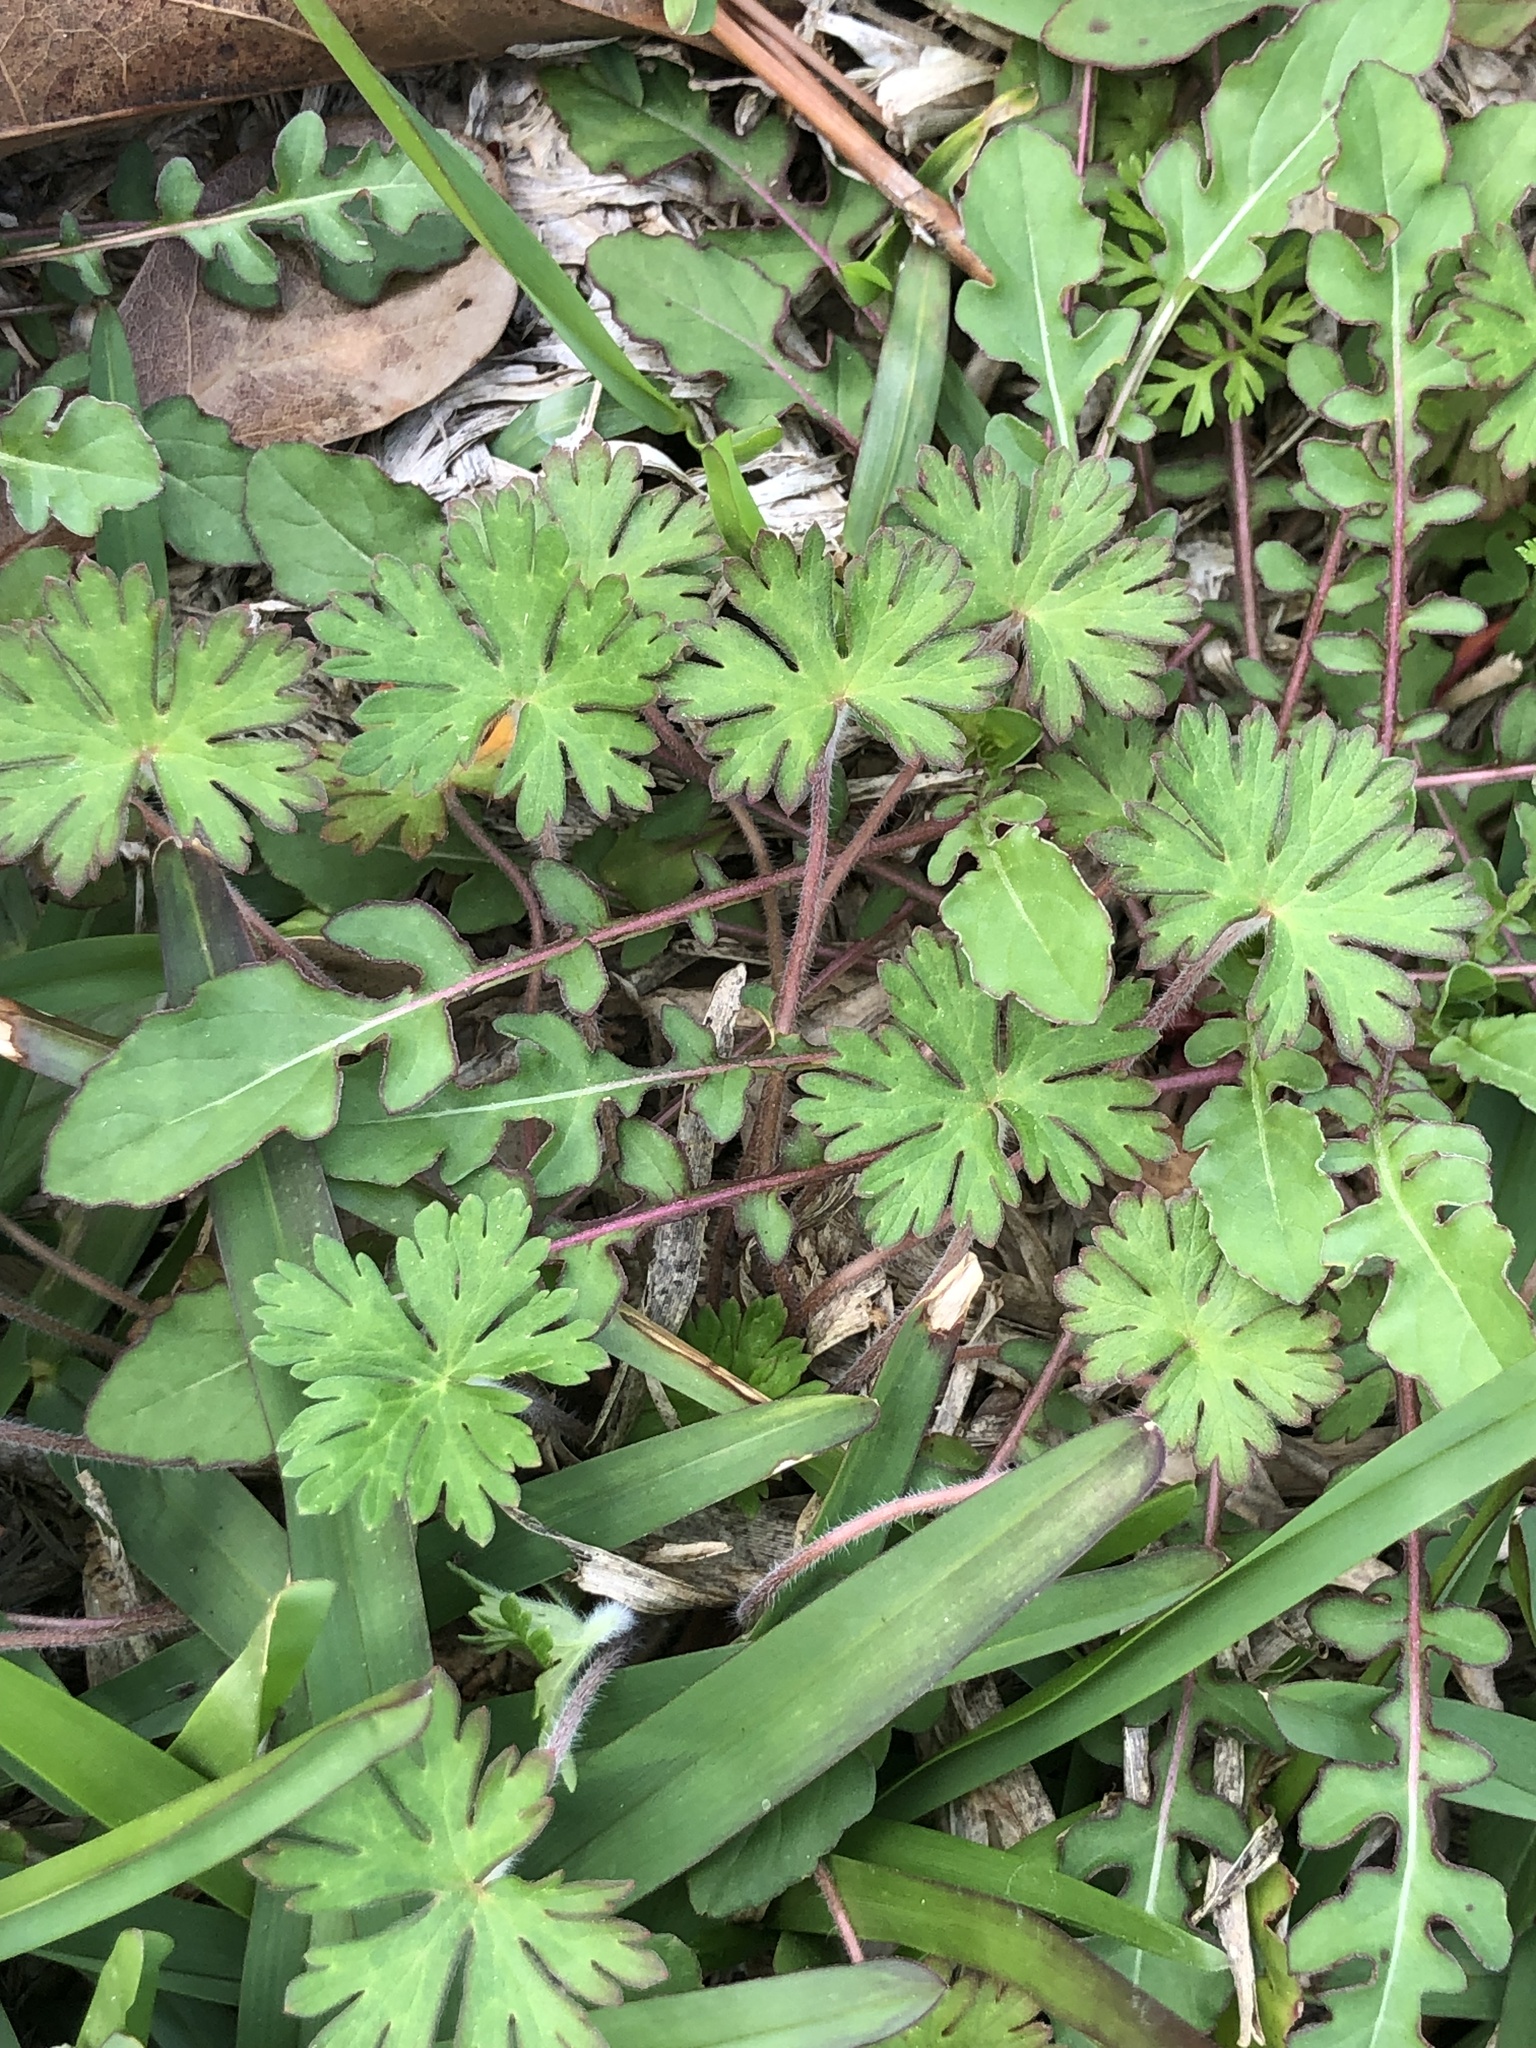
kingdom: Plantae
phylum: Tracheophyta
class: Magnoliopsida
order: Geraniales
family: Geraniaceae
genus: Geranium
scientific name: Geranium carolinianum
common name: Carolina crane's-bill
